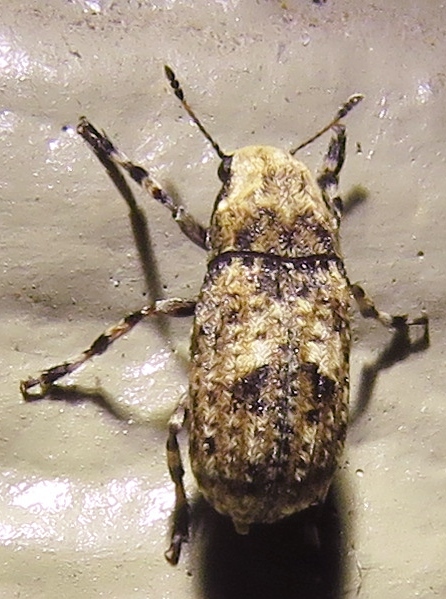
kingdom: Animalia
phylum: Arthropoda
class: Insecta
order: Coleoptera
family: Anthribidae
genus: Euparius
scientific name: Euparius marmoreus
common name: Marbled fungus weevil
